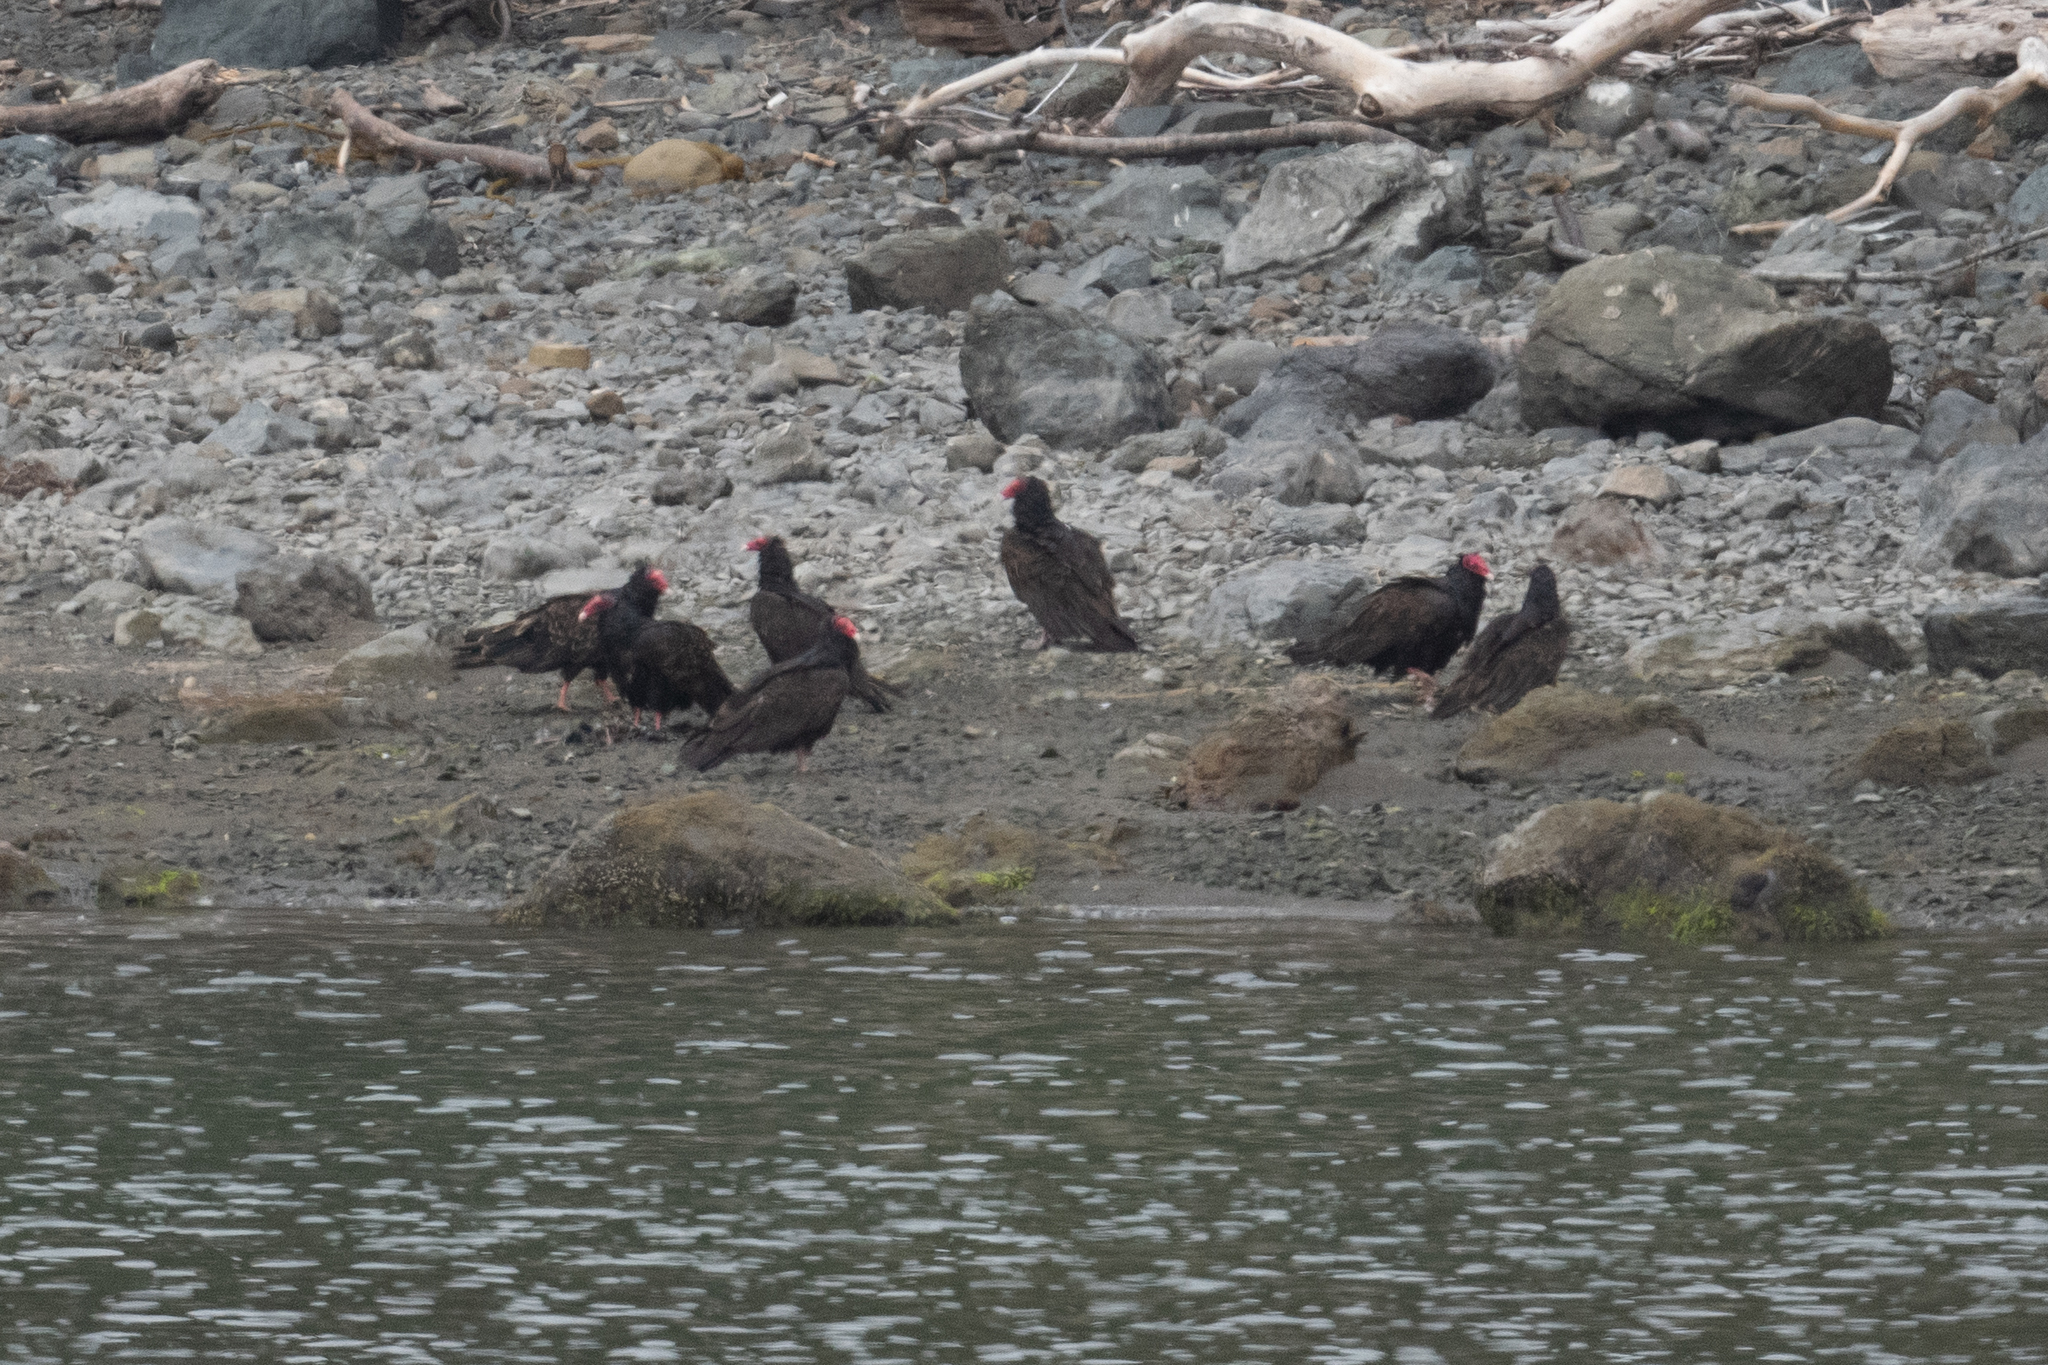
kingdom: Animalia
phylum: Chordata
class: Aves
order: Accipitriformes
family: Cathartidae
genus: Cathartes
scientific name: Cathartes aura
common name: Turkey vulture
